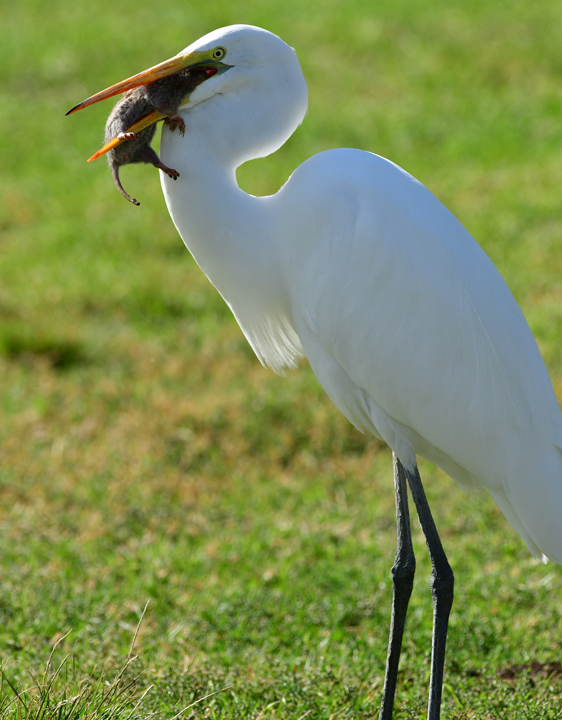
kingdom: Animalia
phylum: Chordata
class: Aves
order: Pelecaniformes
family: Ardeidae
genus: Ardea
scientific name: Ardea alba
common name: Great egret
